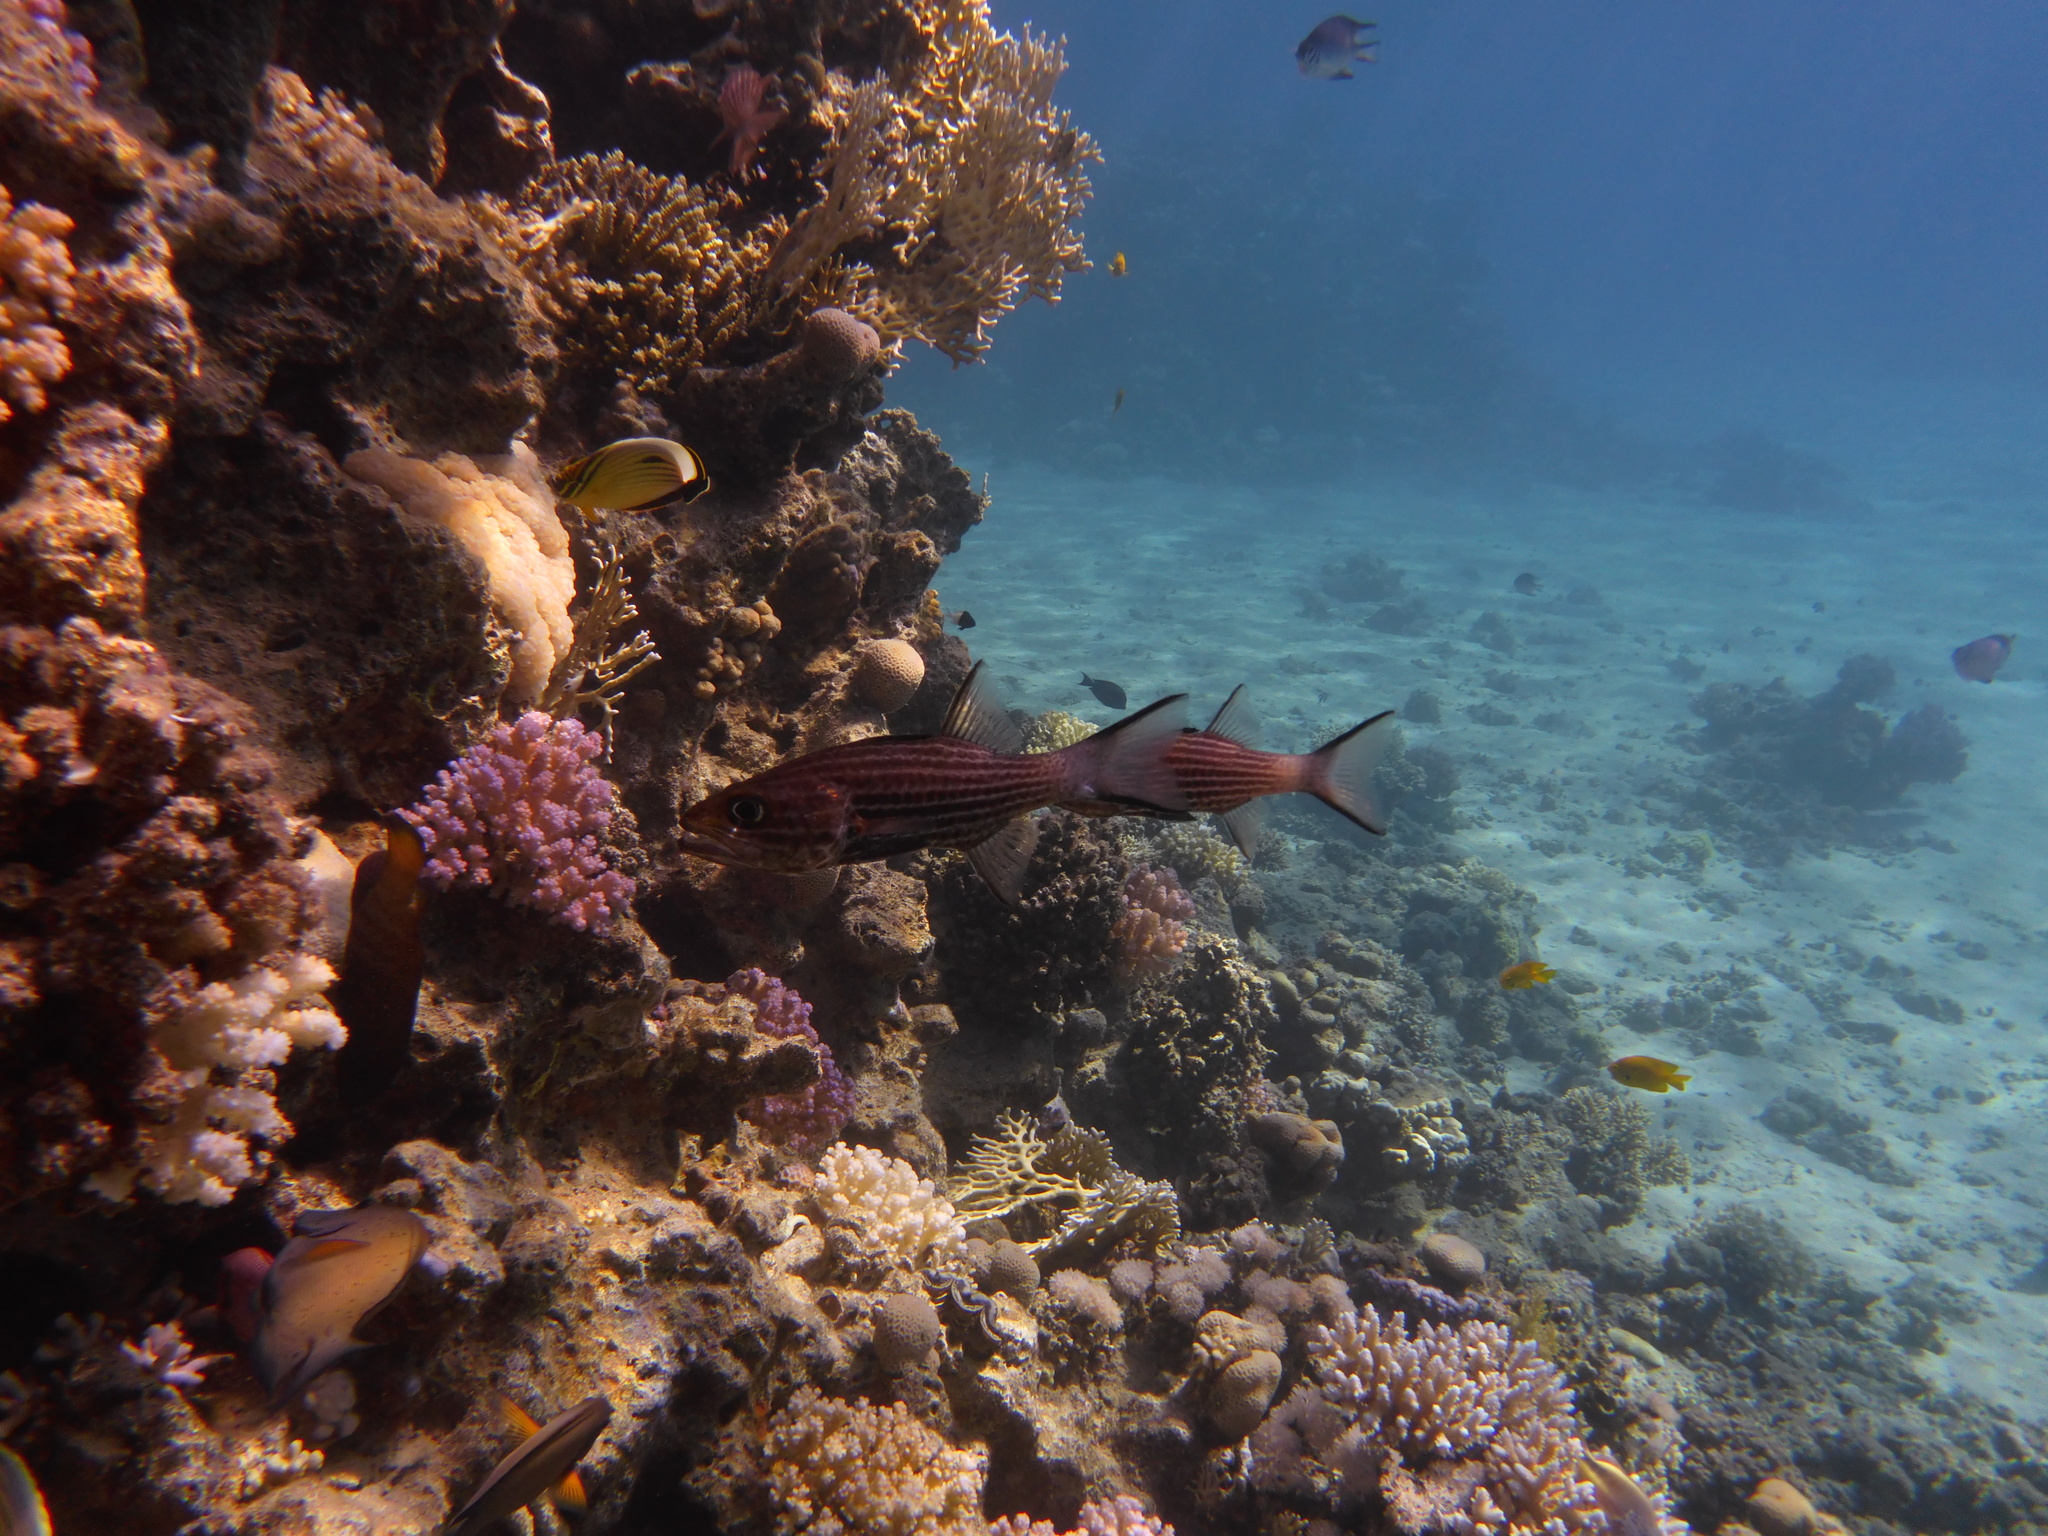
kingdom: Animalia
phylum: Chordata
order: Perciformes
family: Apogonidae
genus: Cheilodipterus
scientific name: Cheilodipterus macrodon
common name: Eight-lined cardinalfish
